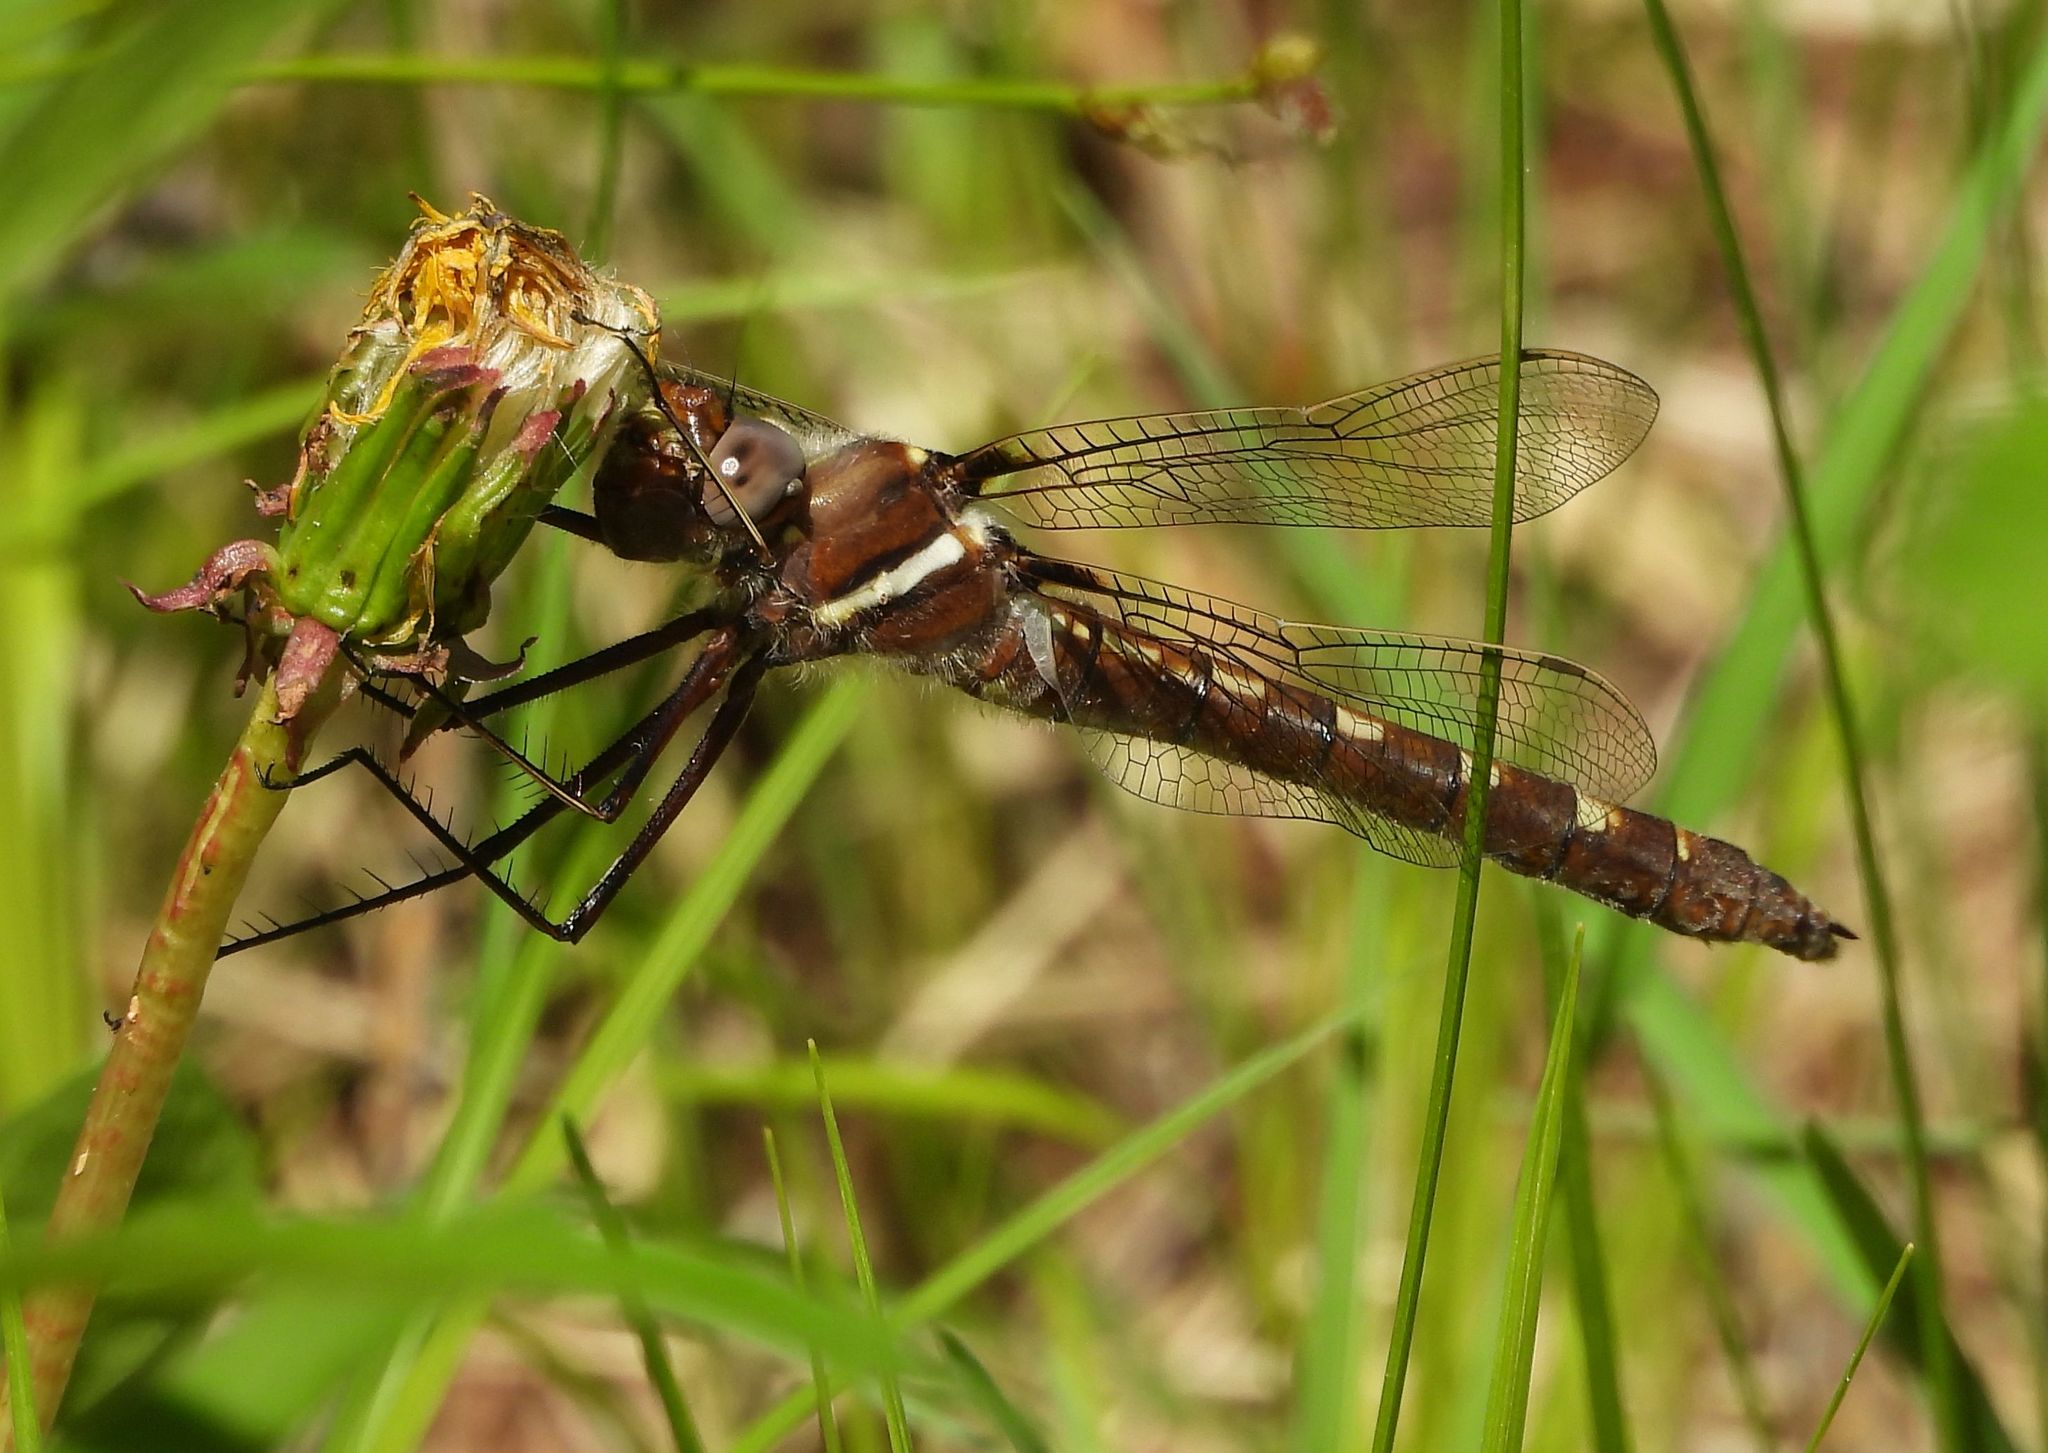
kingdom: Animalia
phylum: Arthropoda
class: Insecta
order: Odonata
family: Macromiidae
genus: Didymops
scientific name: Didymops transversa
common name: Stream cruiser
